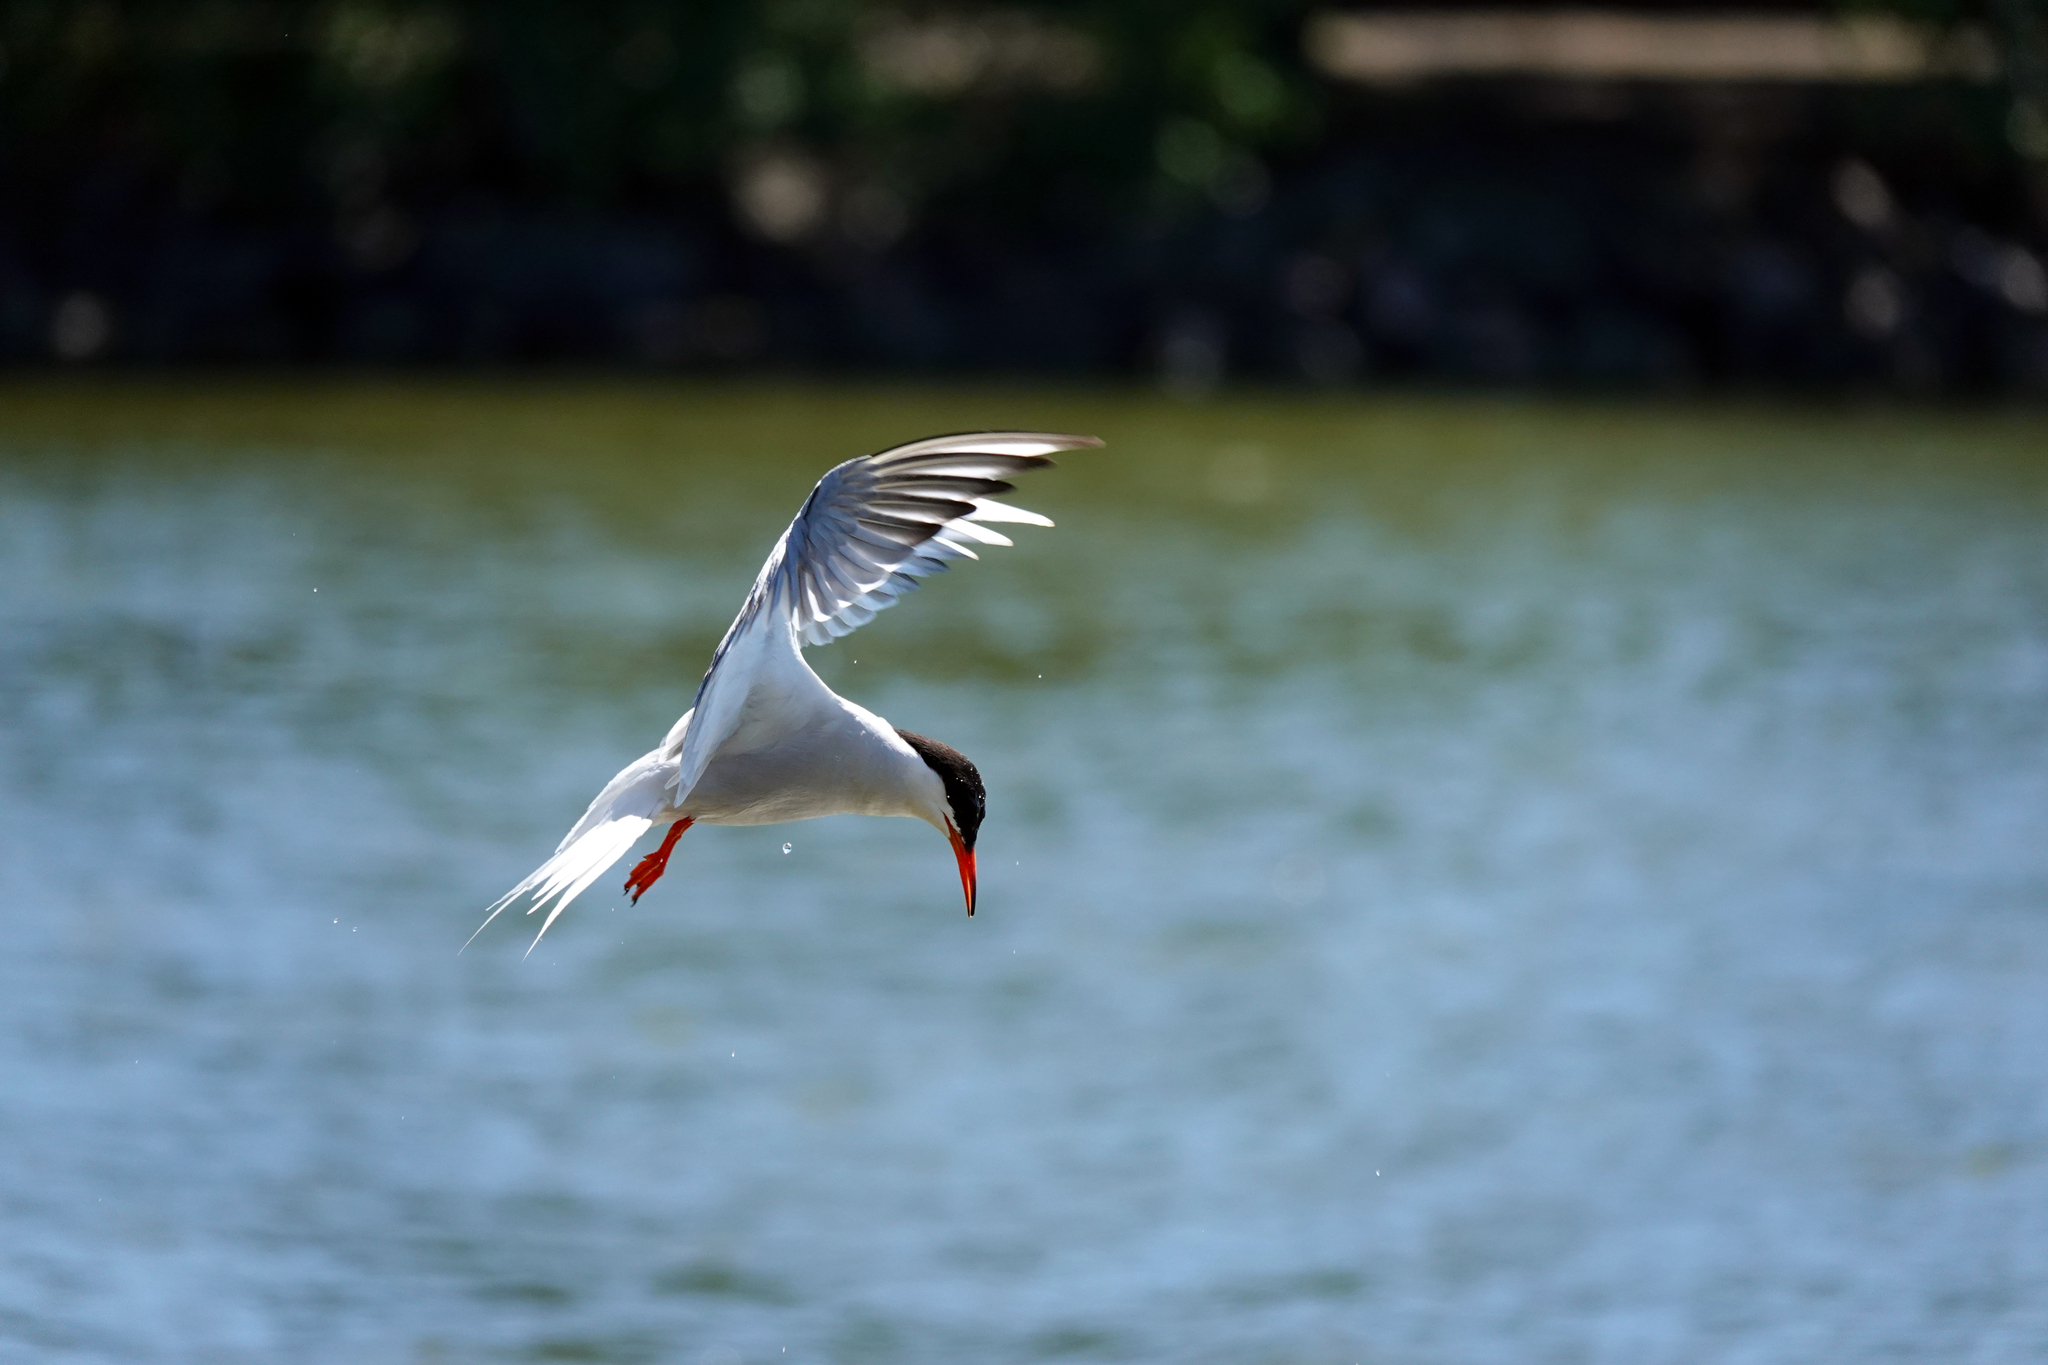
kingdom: Animalia
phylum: Chordata
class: Aves
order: Charadriiformes
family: Laridae
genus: Sterna
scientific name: Sterna hirundo
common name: Common tern
